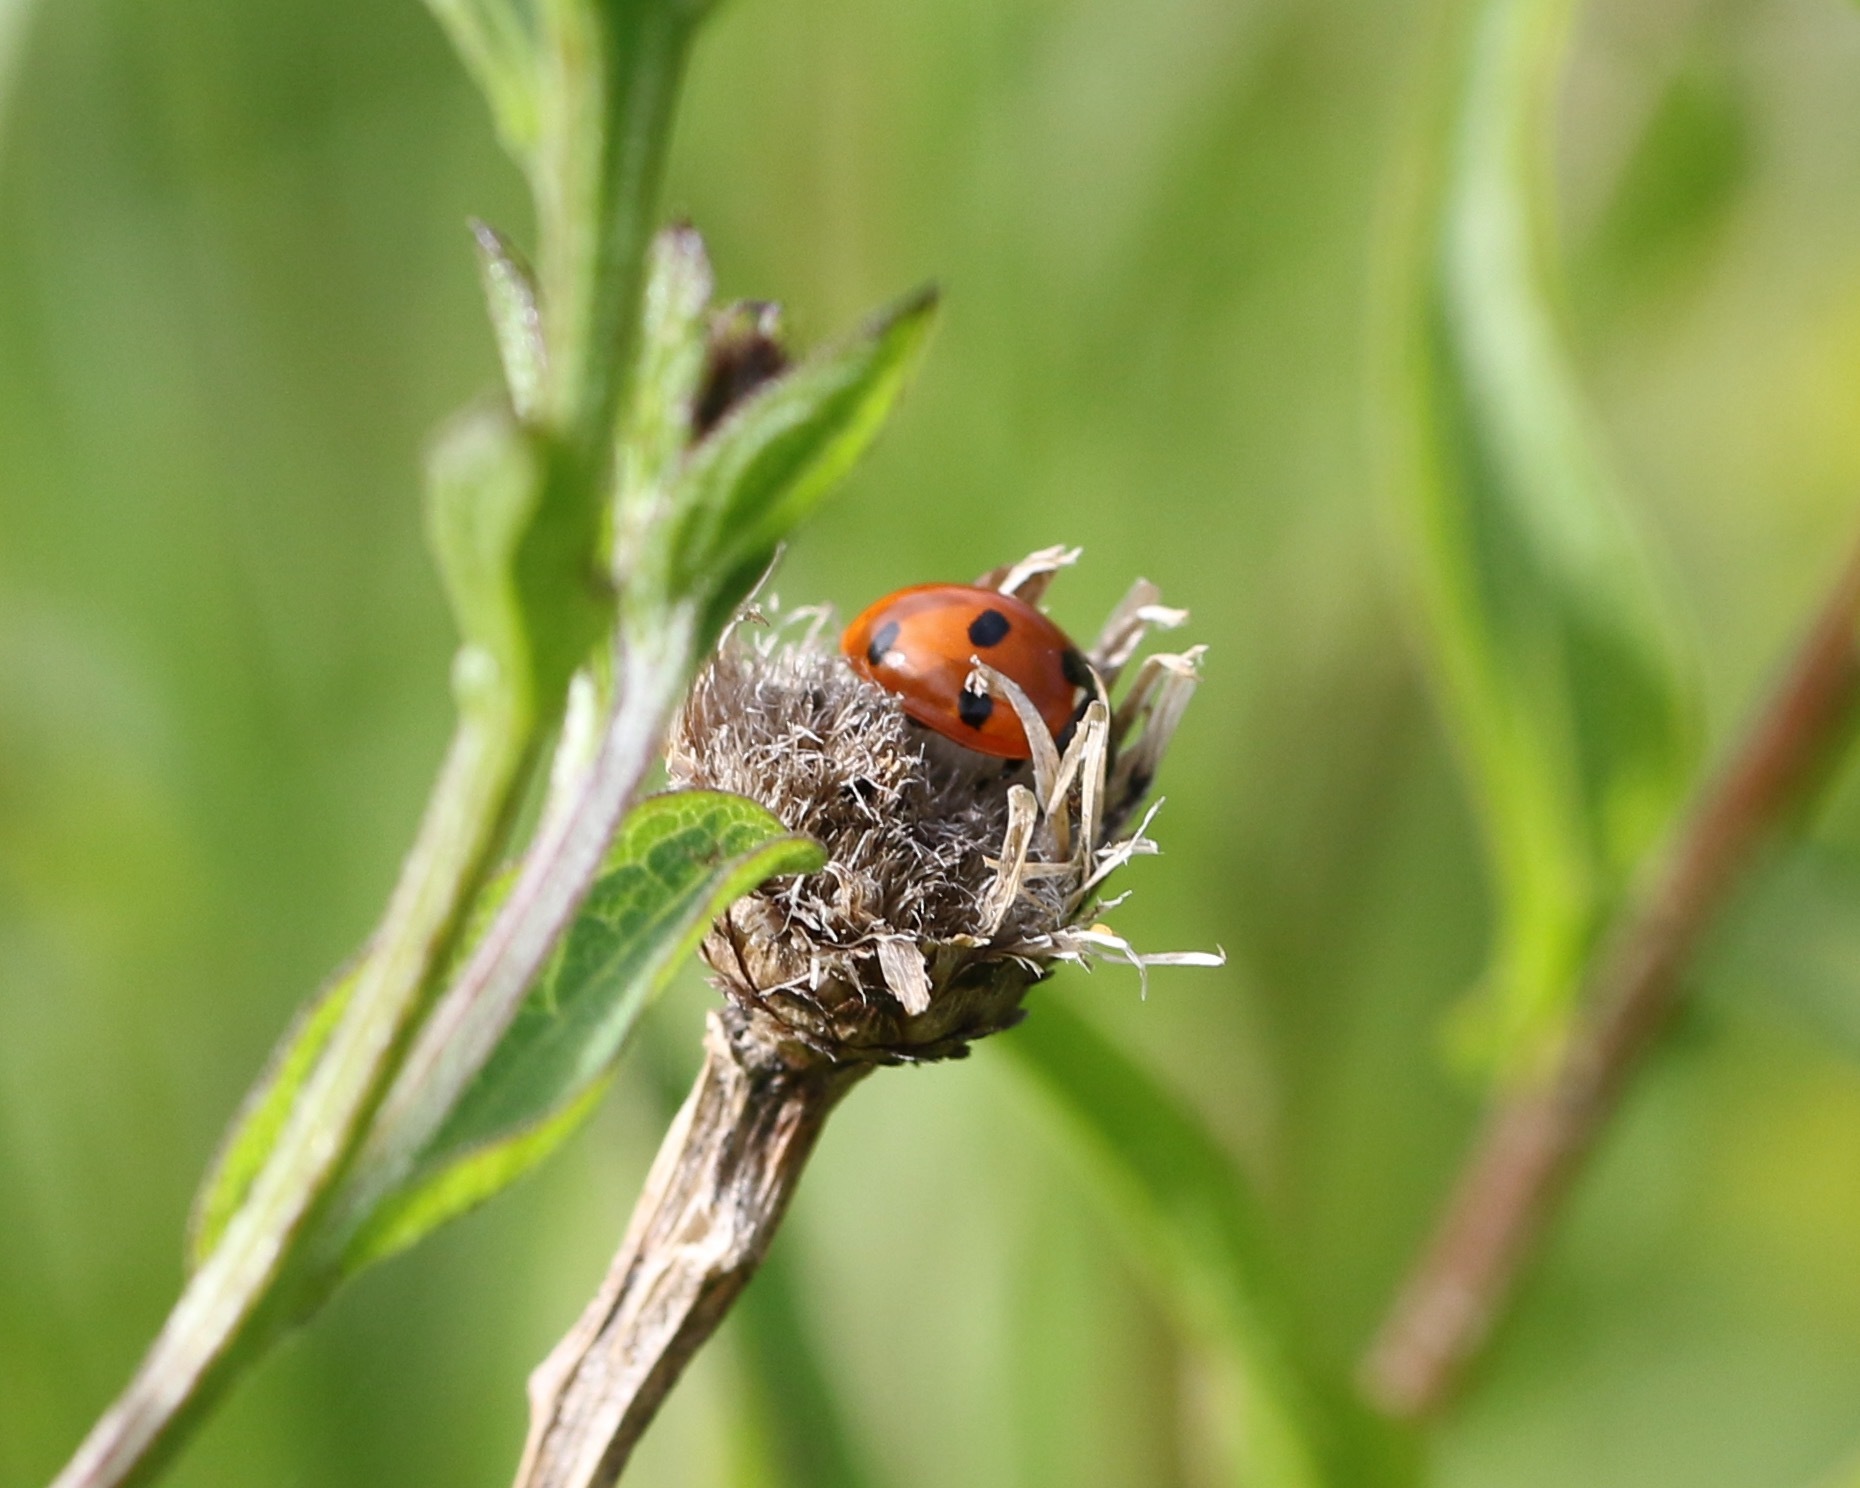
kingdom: Animalia
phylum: Arthropoda
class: Insecta
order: Coleoptera
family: Coccinellidae
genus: Coccinella
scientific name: Coccinella septempunctata
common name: Sevenspotted lady beetle
